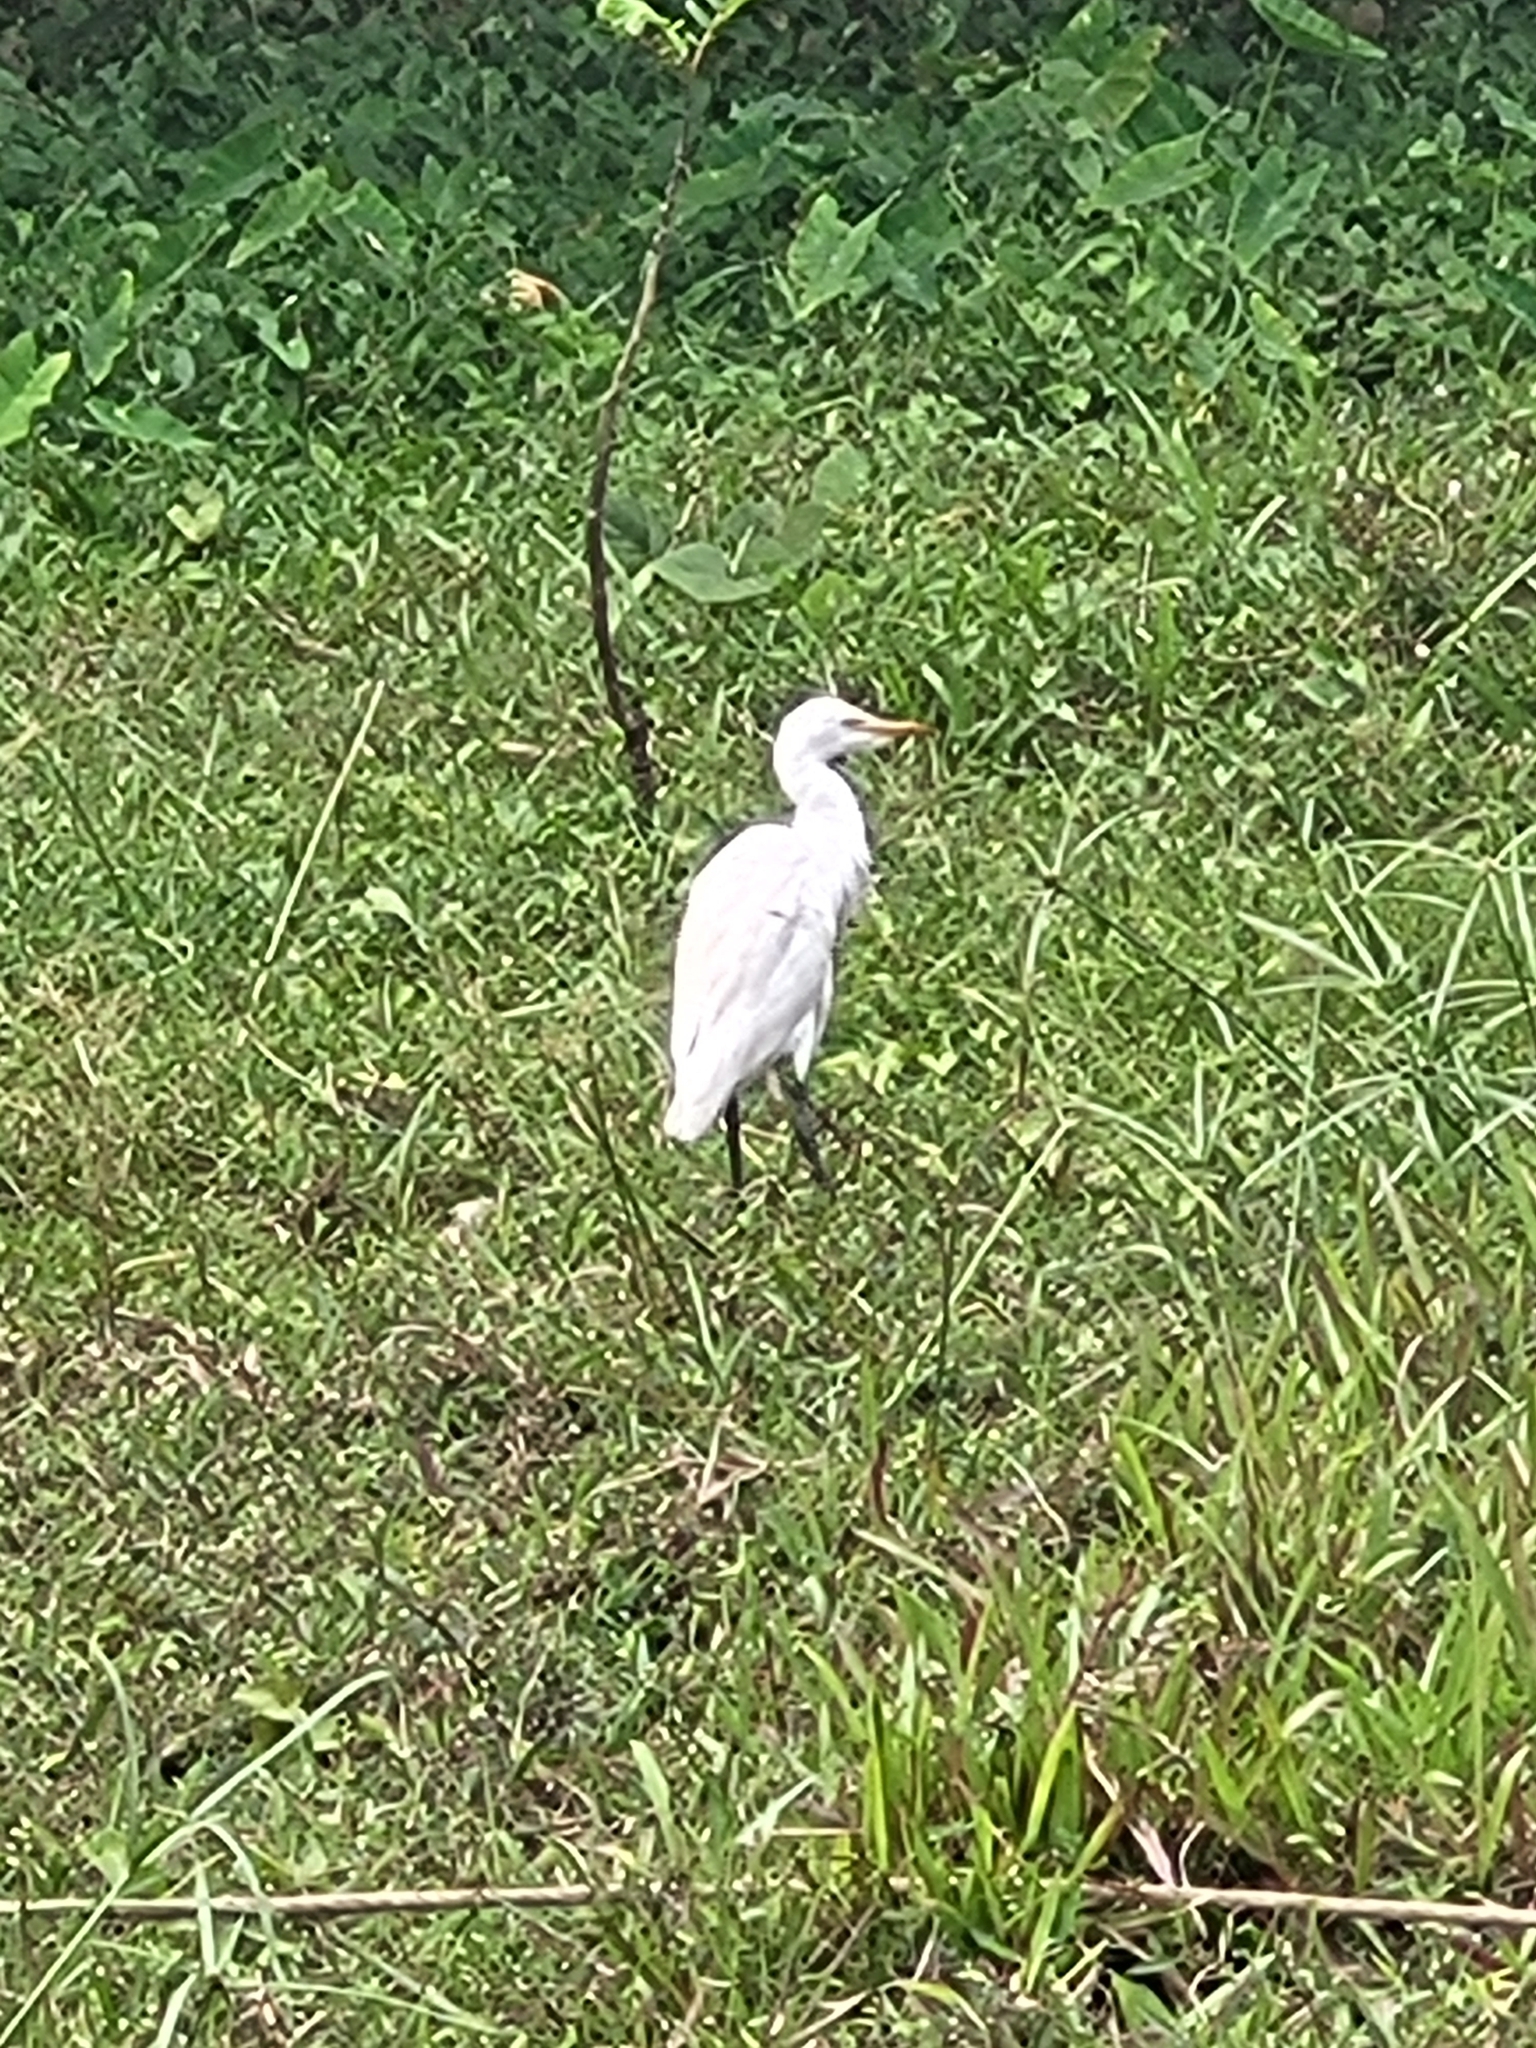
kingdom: Animalia
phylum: Chordata
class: Aves
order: Pelecaniformes
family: Ardeidae
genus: Bubulcus
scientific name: Bubulcus coromandus
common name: Eastern cattle egret
